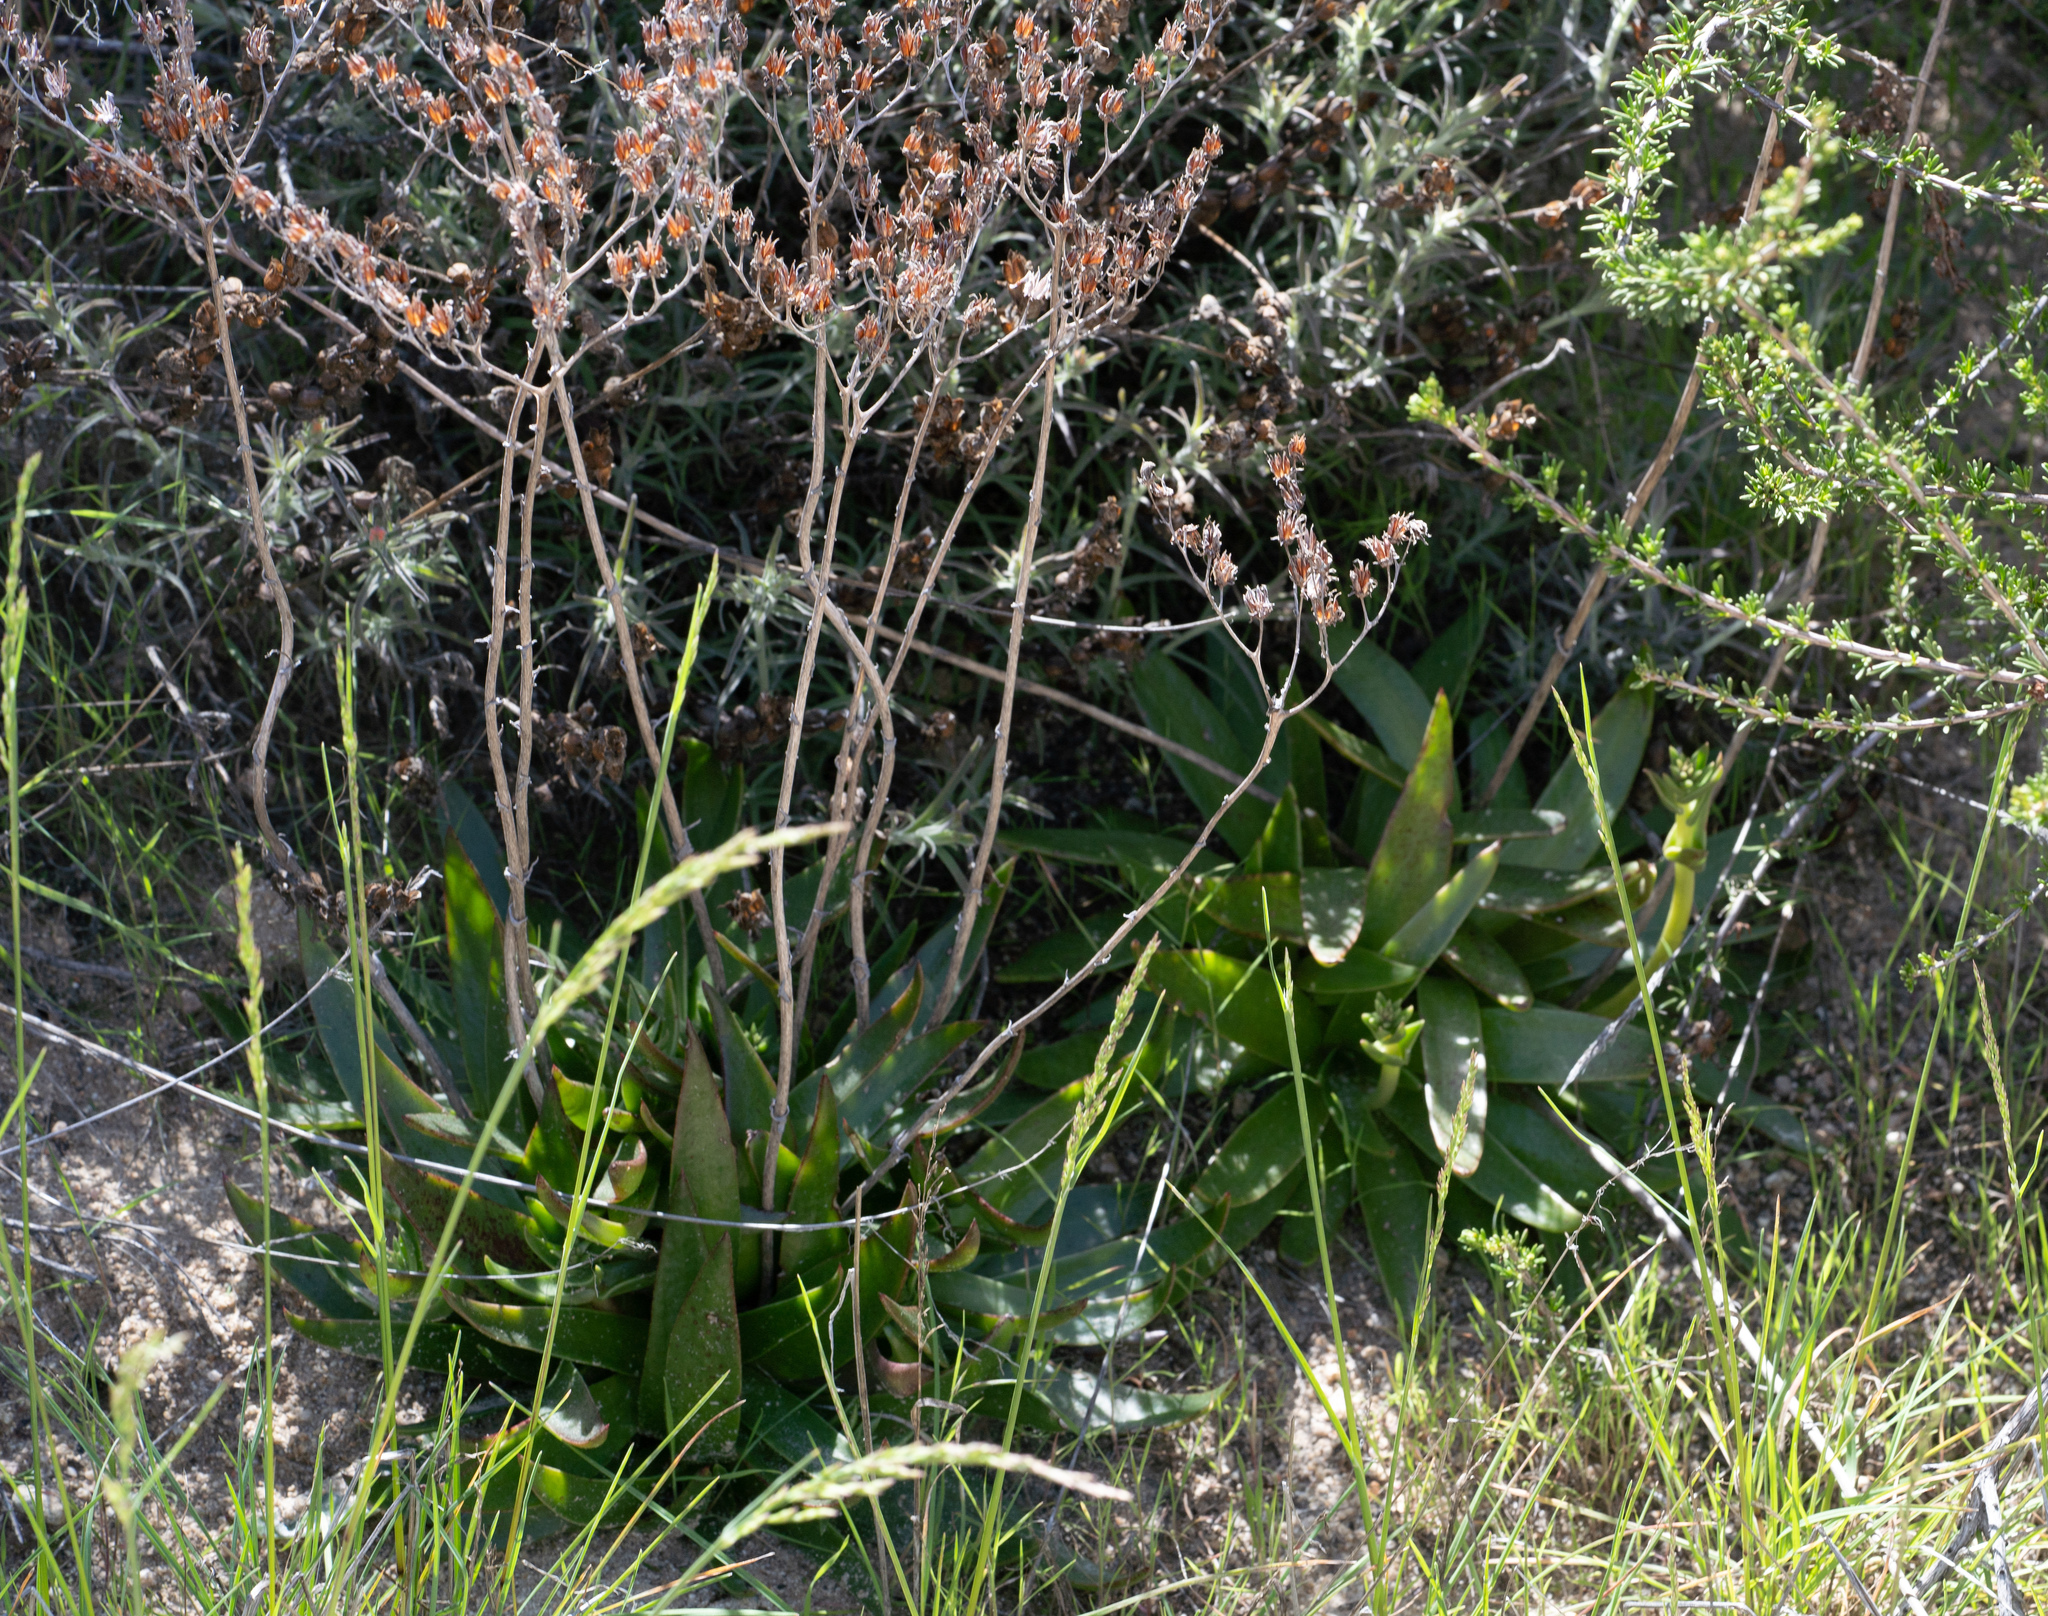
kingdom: Plantae
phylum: Tracheophyta
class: Magnoliopsida
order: Saxifragales
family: Crassulaceae
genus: Dudleya
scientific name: Dudleya lanceolata
